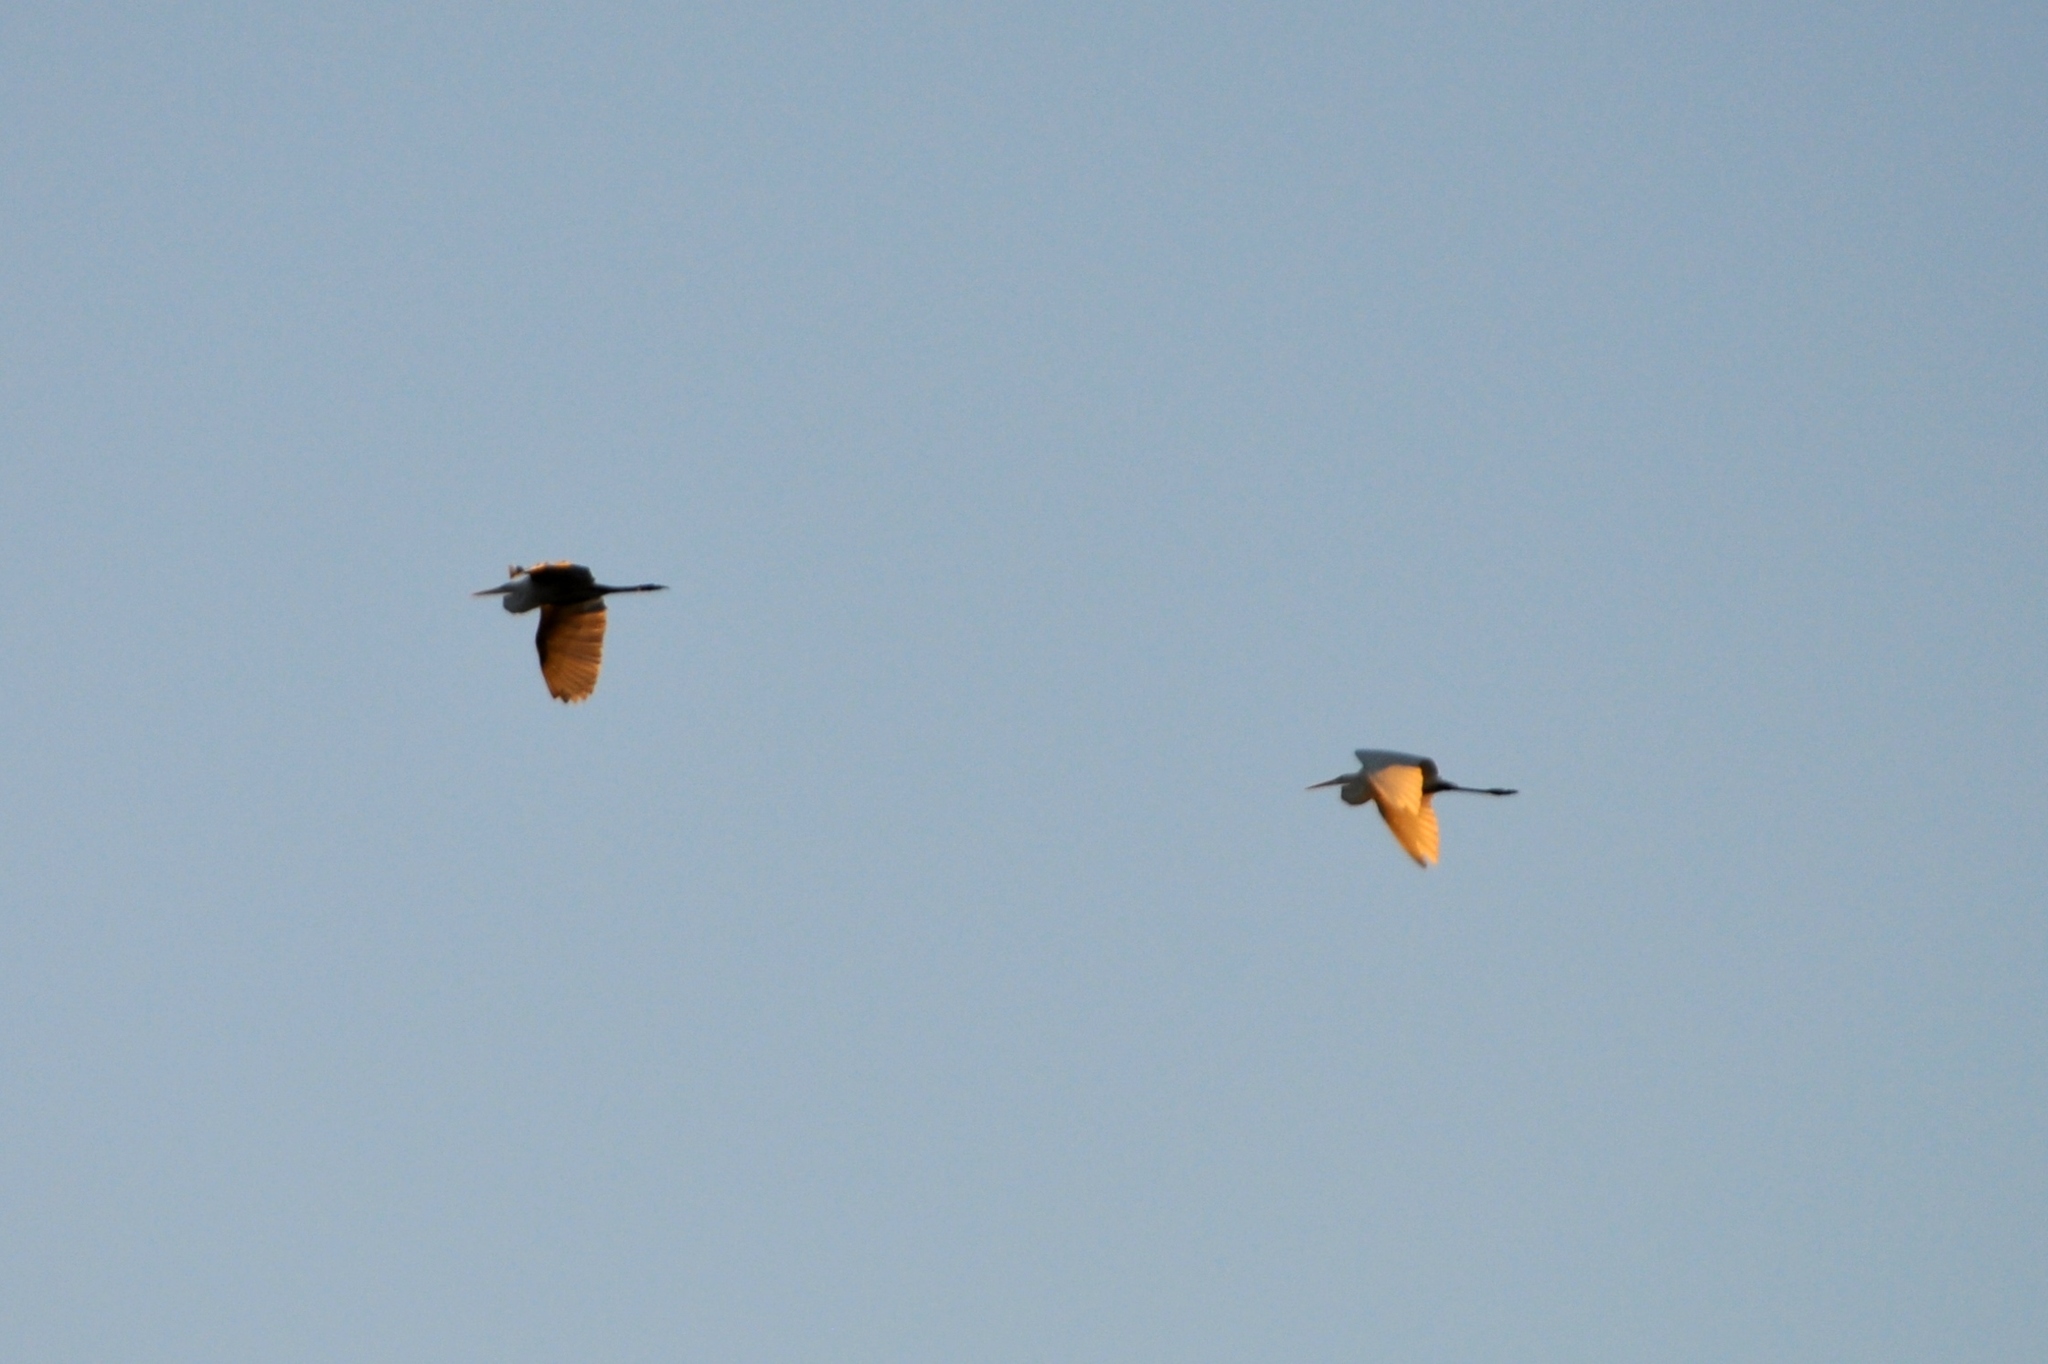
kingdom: Animalia
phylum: Chordata
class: Aves
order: Pelecaniformes
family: Ardeidae
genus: Ardea
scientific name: Ardea alba
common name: Great egret
